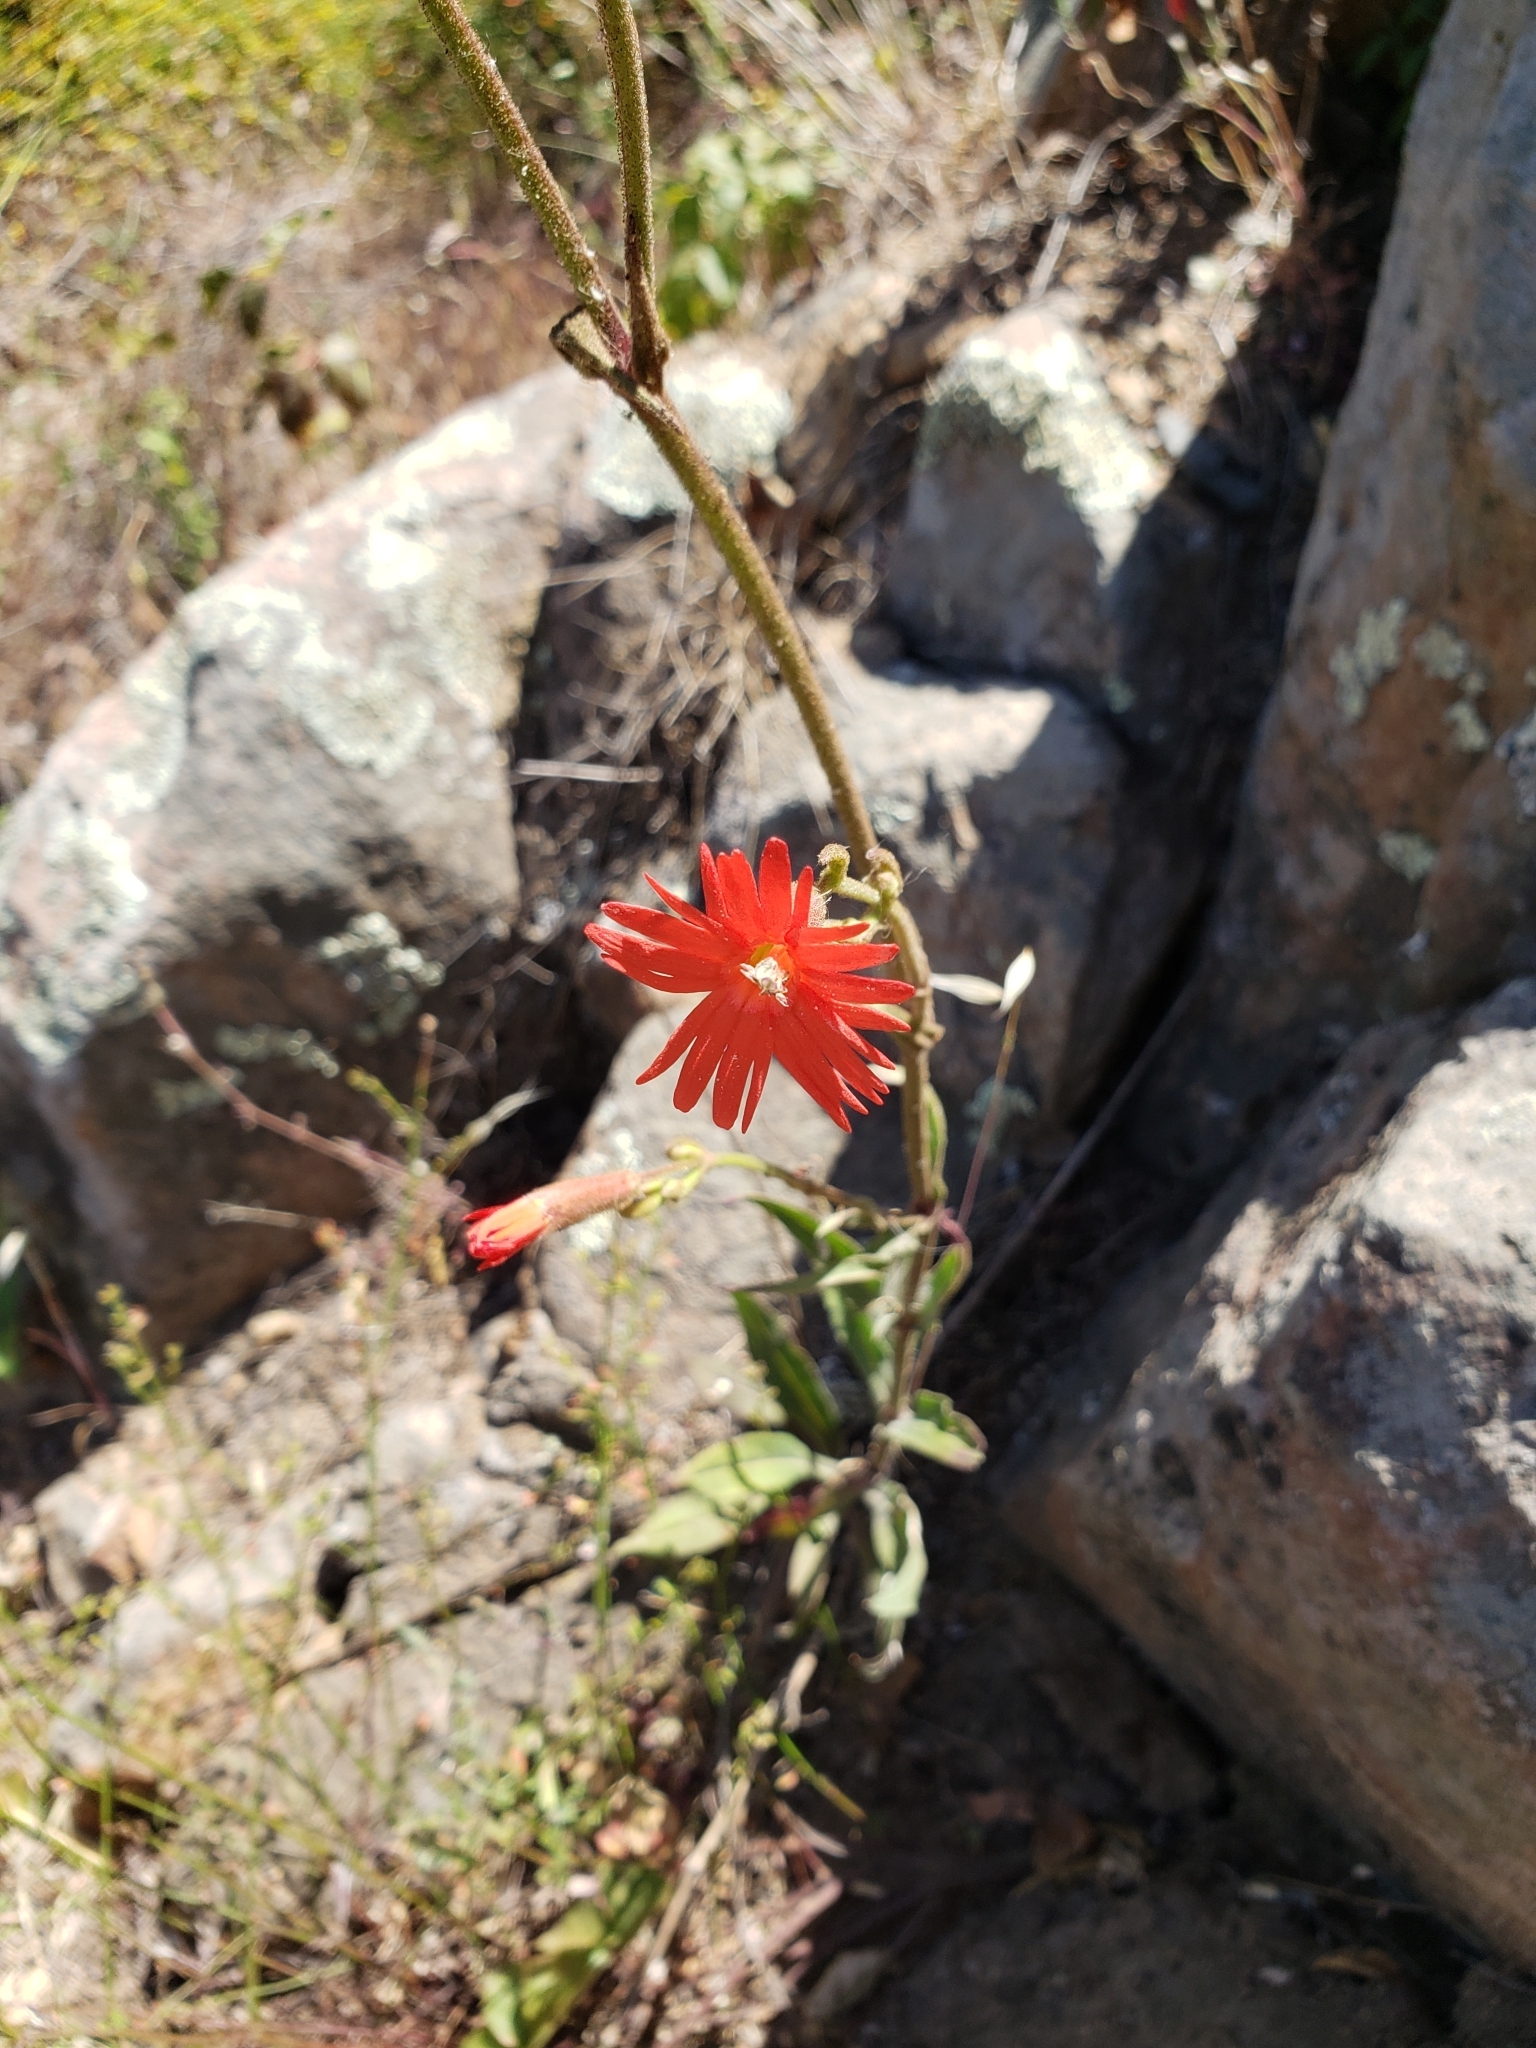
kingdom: Plantae
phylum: Tracheophyta
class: Magnoliopsida
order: Caryophyllales
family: Caryophyllaceae
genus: Silene
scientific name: Silene laciniata
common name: Indian-pink
